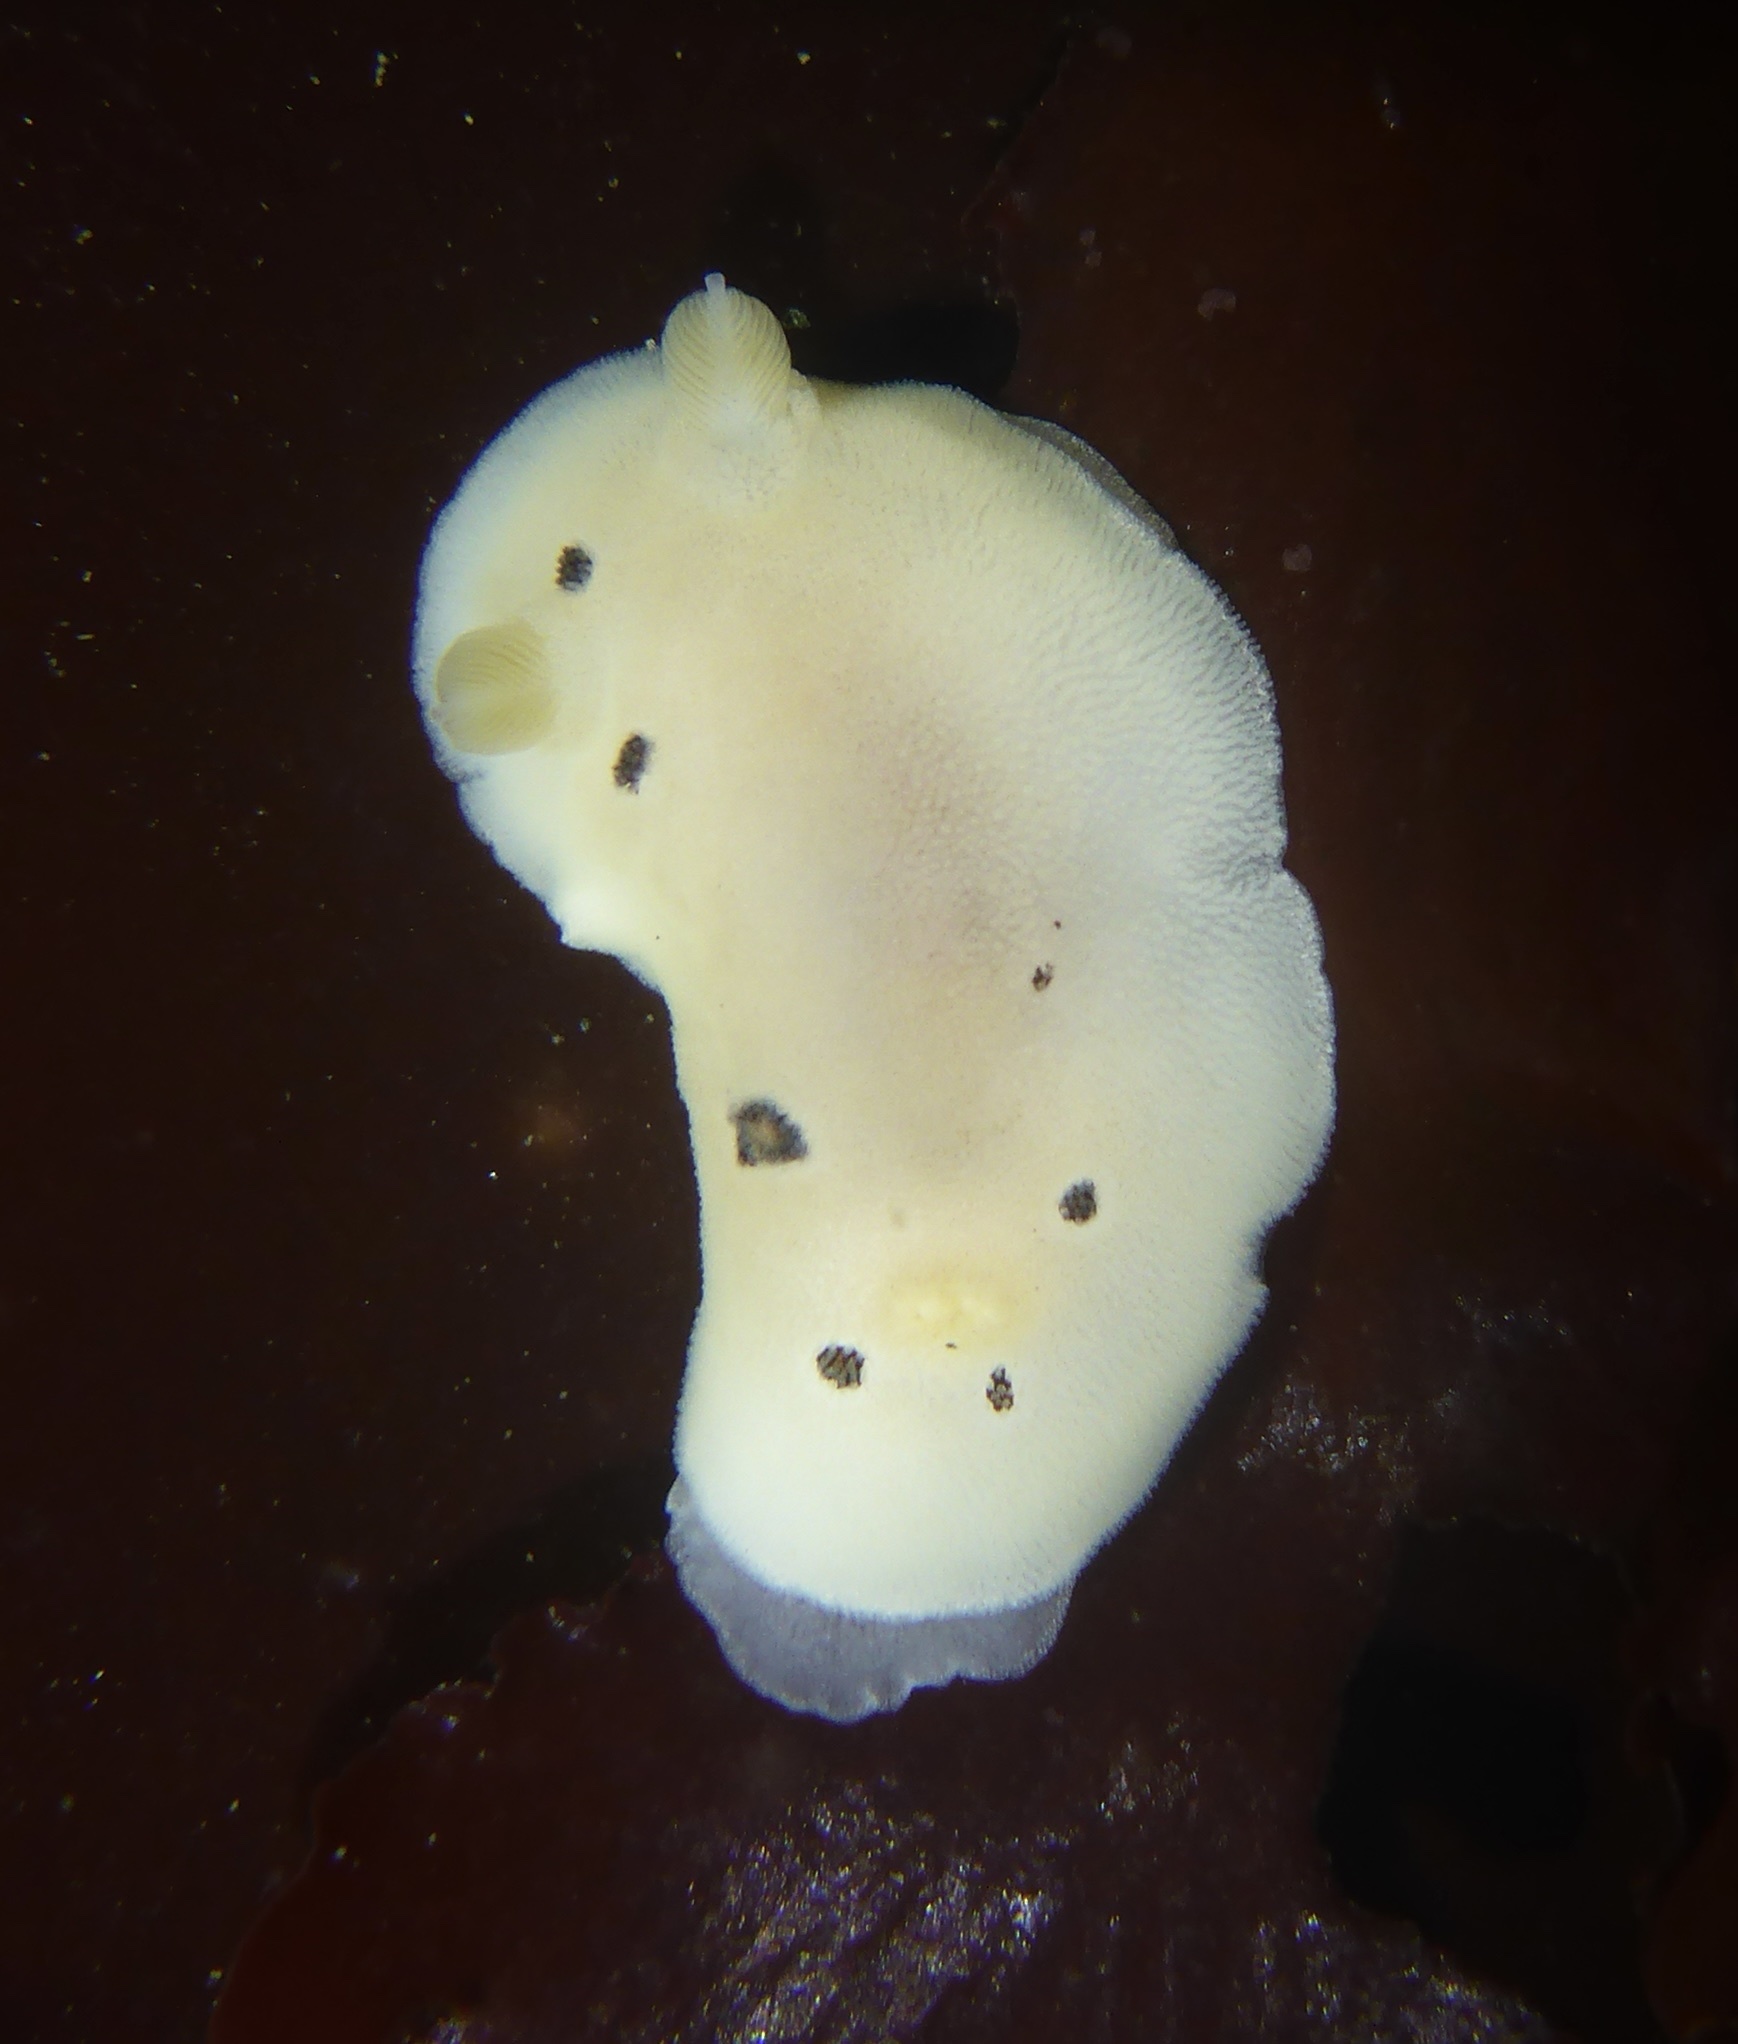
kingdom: Animalia
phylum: Mollusca
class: Gastropoda
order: Nudibranchia
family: Discodorididae
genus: Diaulula
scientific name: Diaulula sandiegensis
